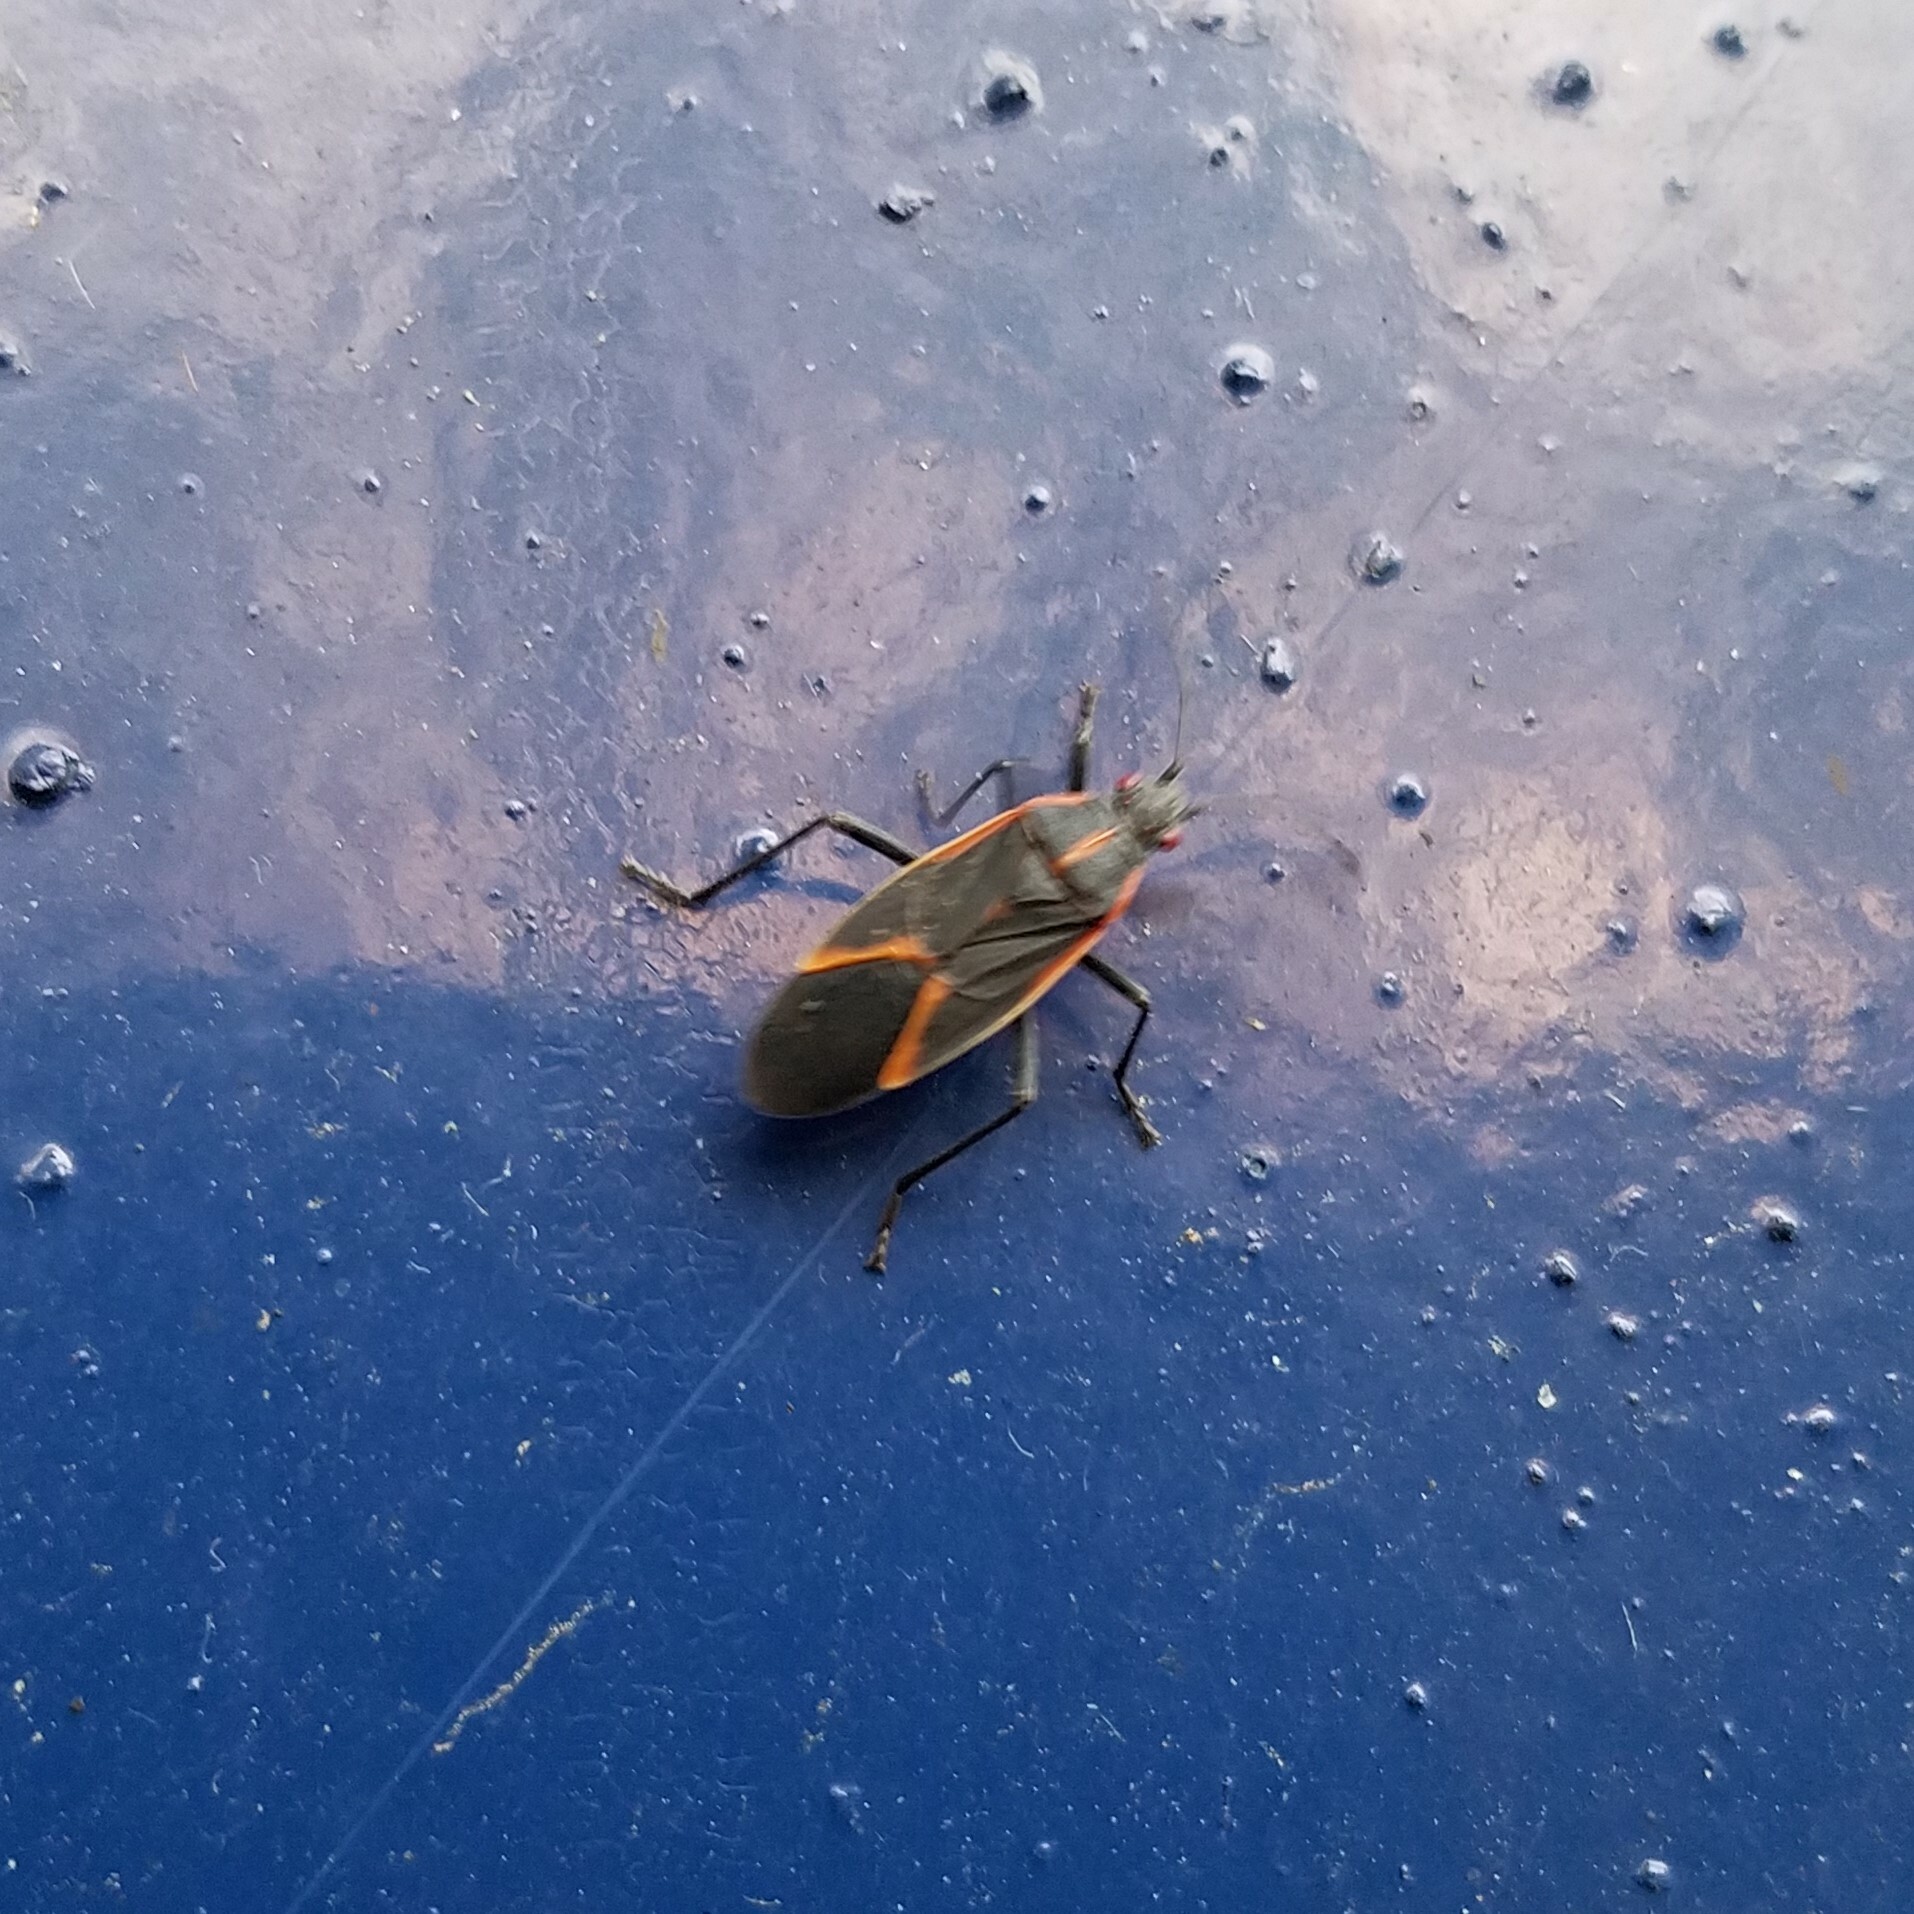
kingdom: Animalia
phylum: Arthropoda
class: Insecta
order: Hemiptera
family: Rhopalidae
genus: Boisea
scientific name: Boisea trivittata
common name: Boxelder bug
